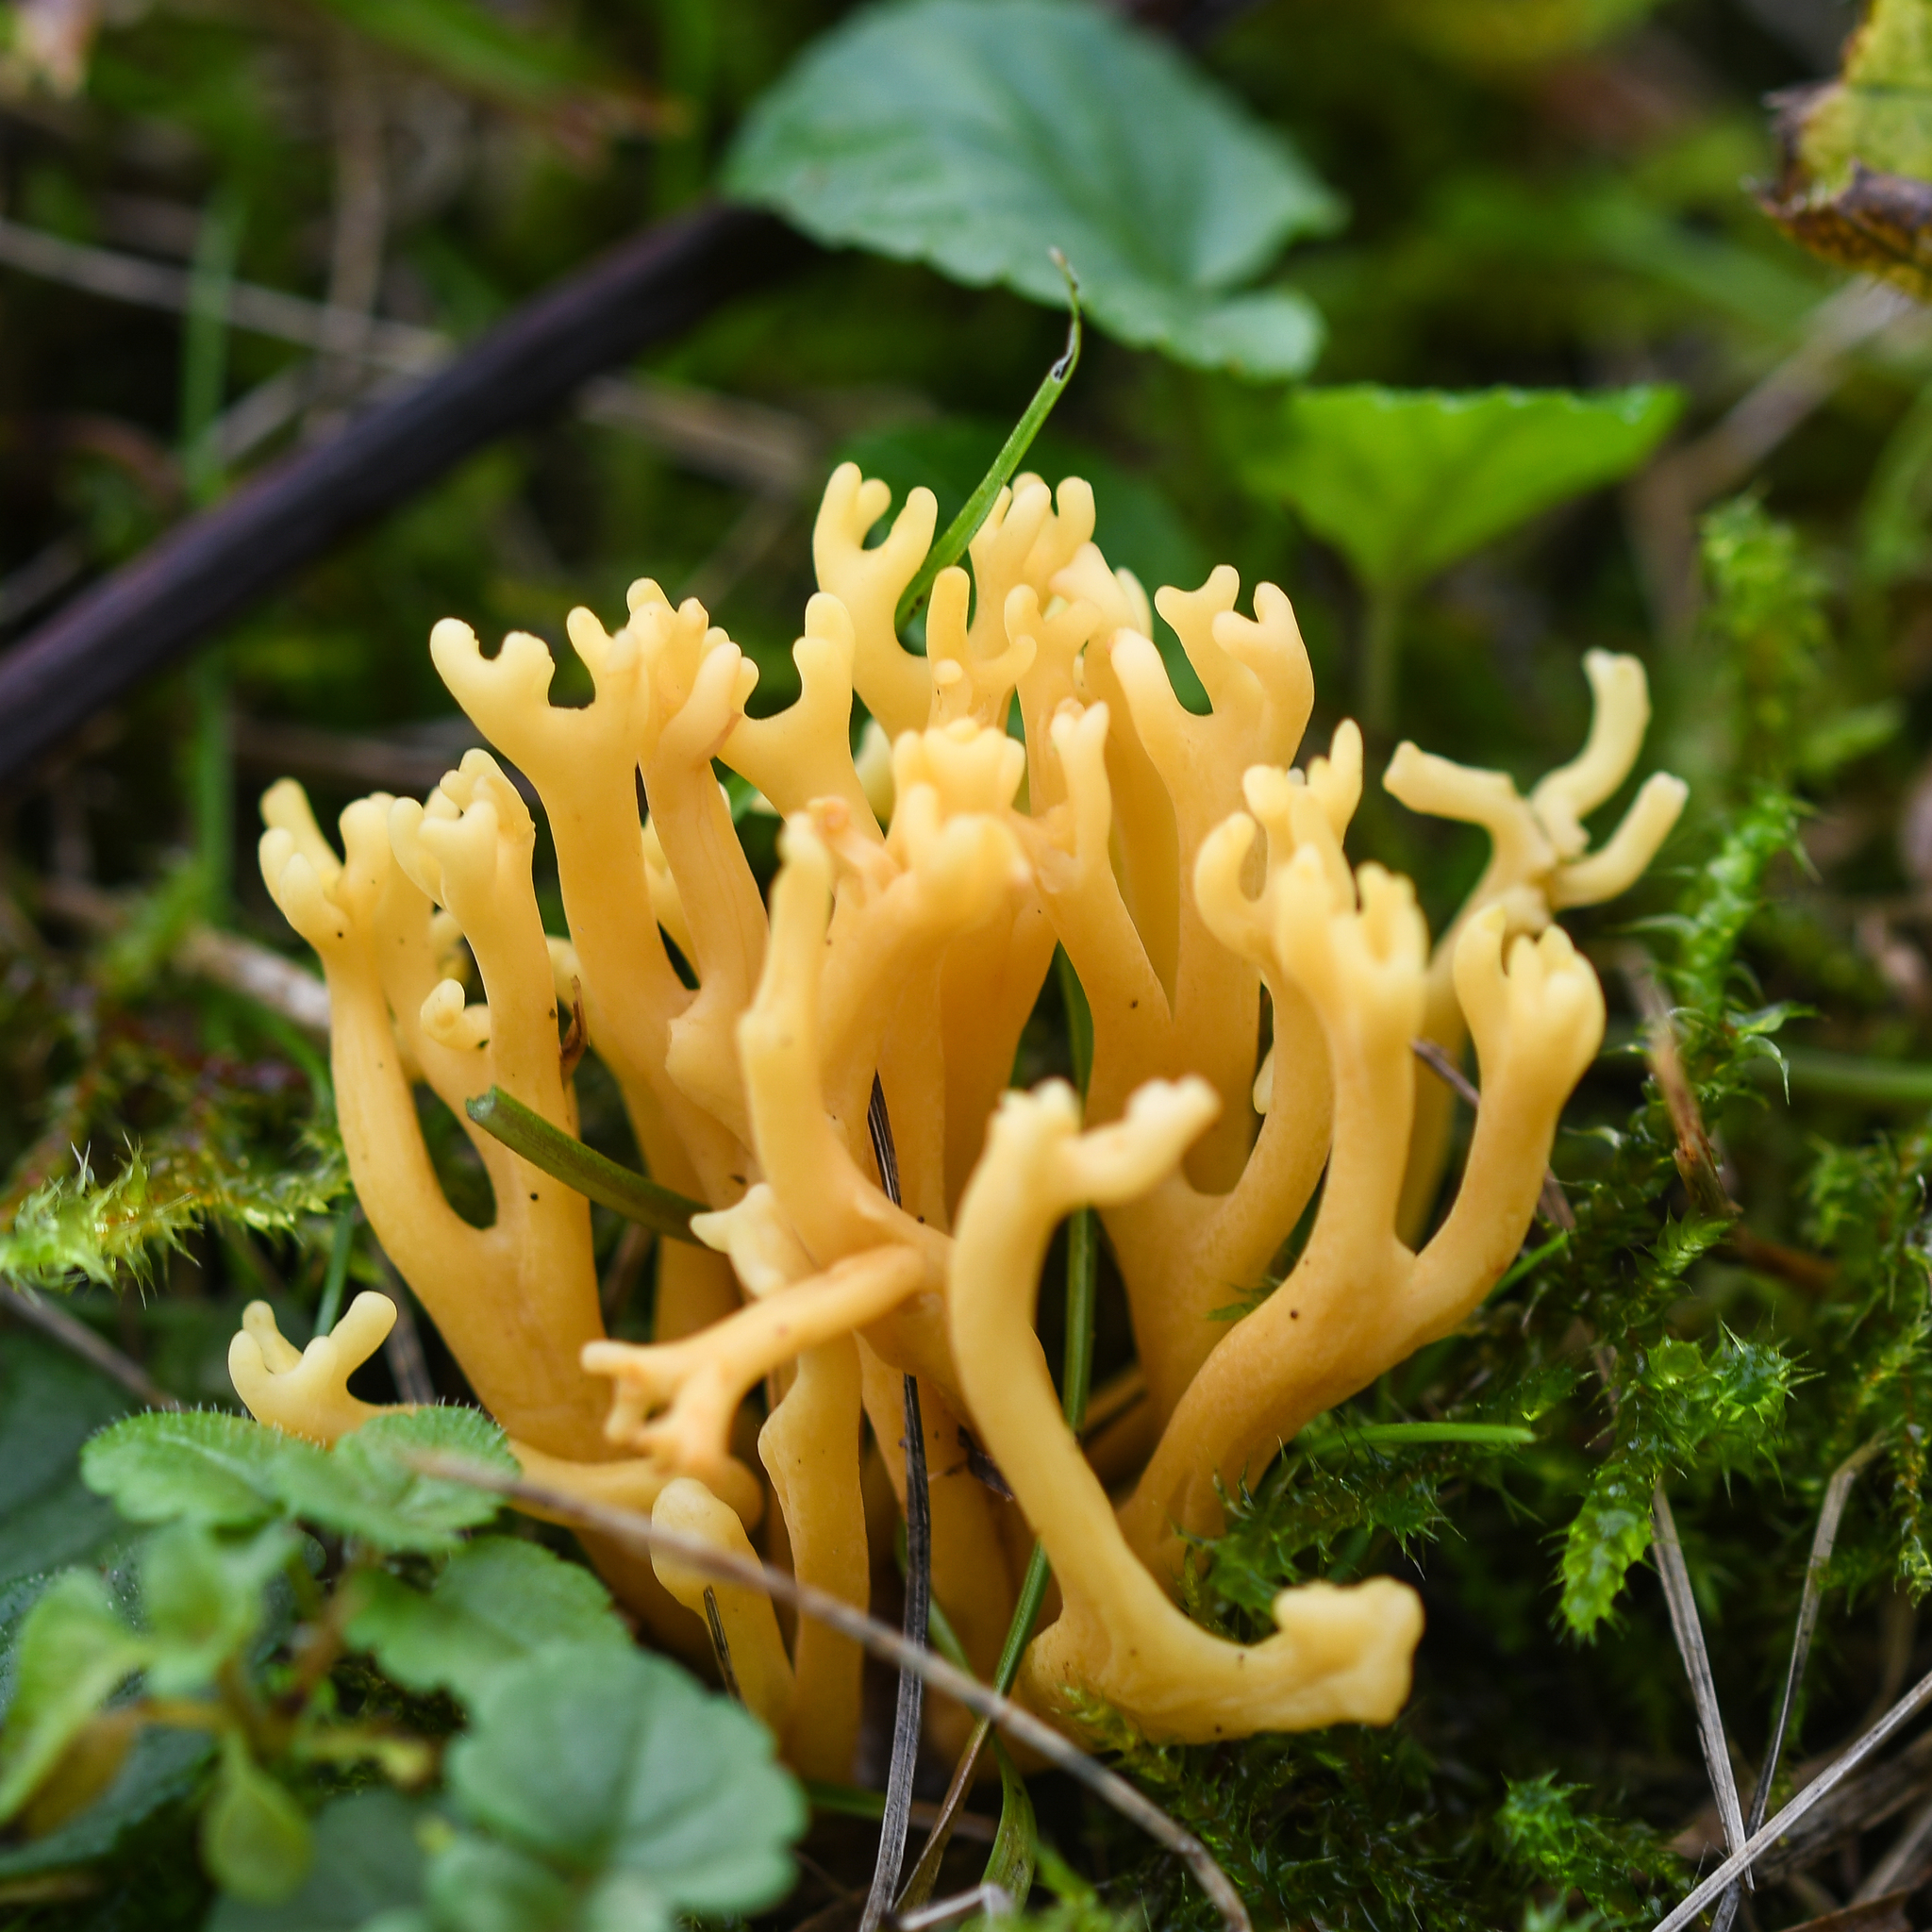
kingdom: Fungi
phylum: Basidiomycota
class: Agaricomycetes
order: Agaricales
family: Clavariaceae
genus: Clavulinopsis
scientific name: Clavulinopsis corniculata
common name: Meadow coral
